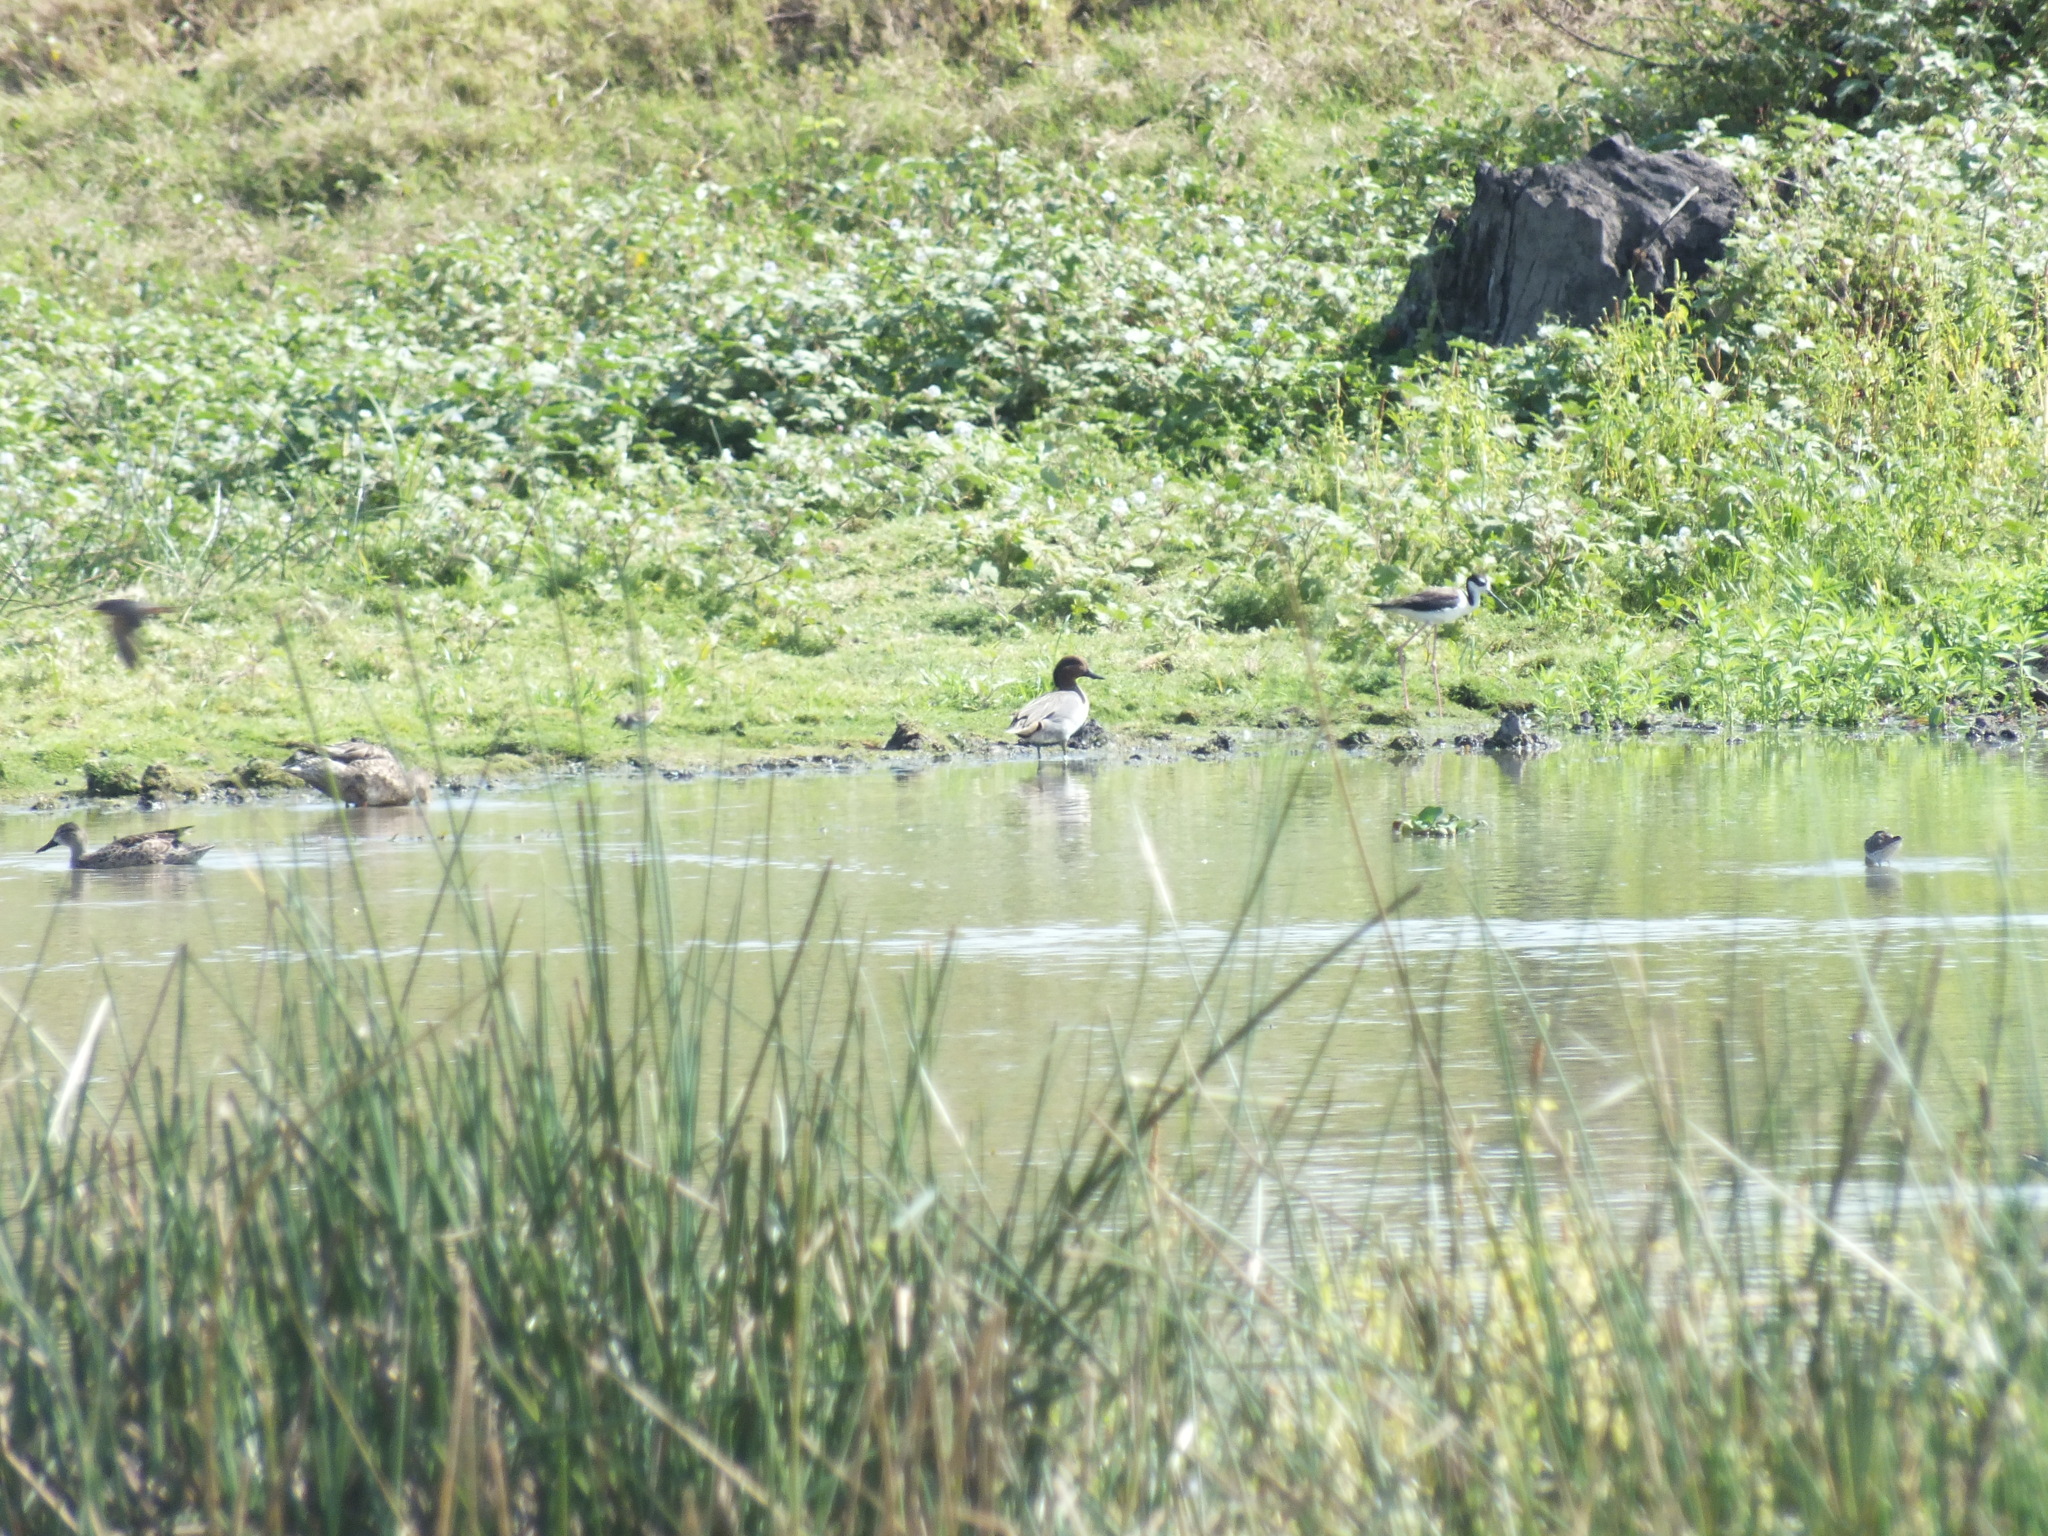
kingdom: Animalia
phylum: Chordata
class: Aves
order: Anseriformes
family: Anatidae
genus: Anas
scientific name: Anas crecca
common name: Eurasian teal
